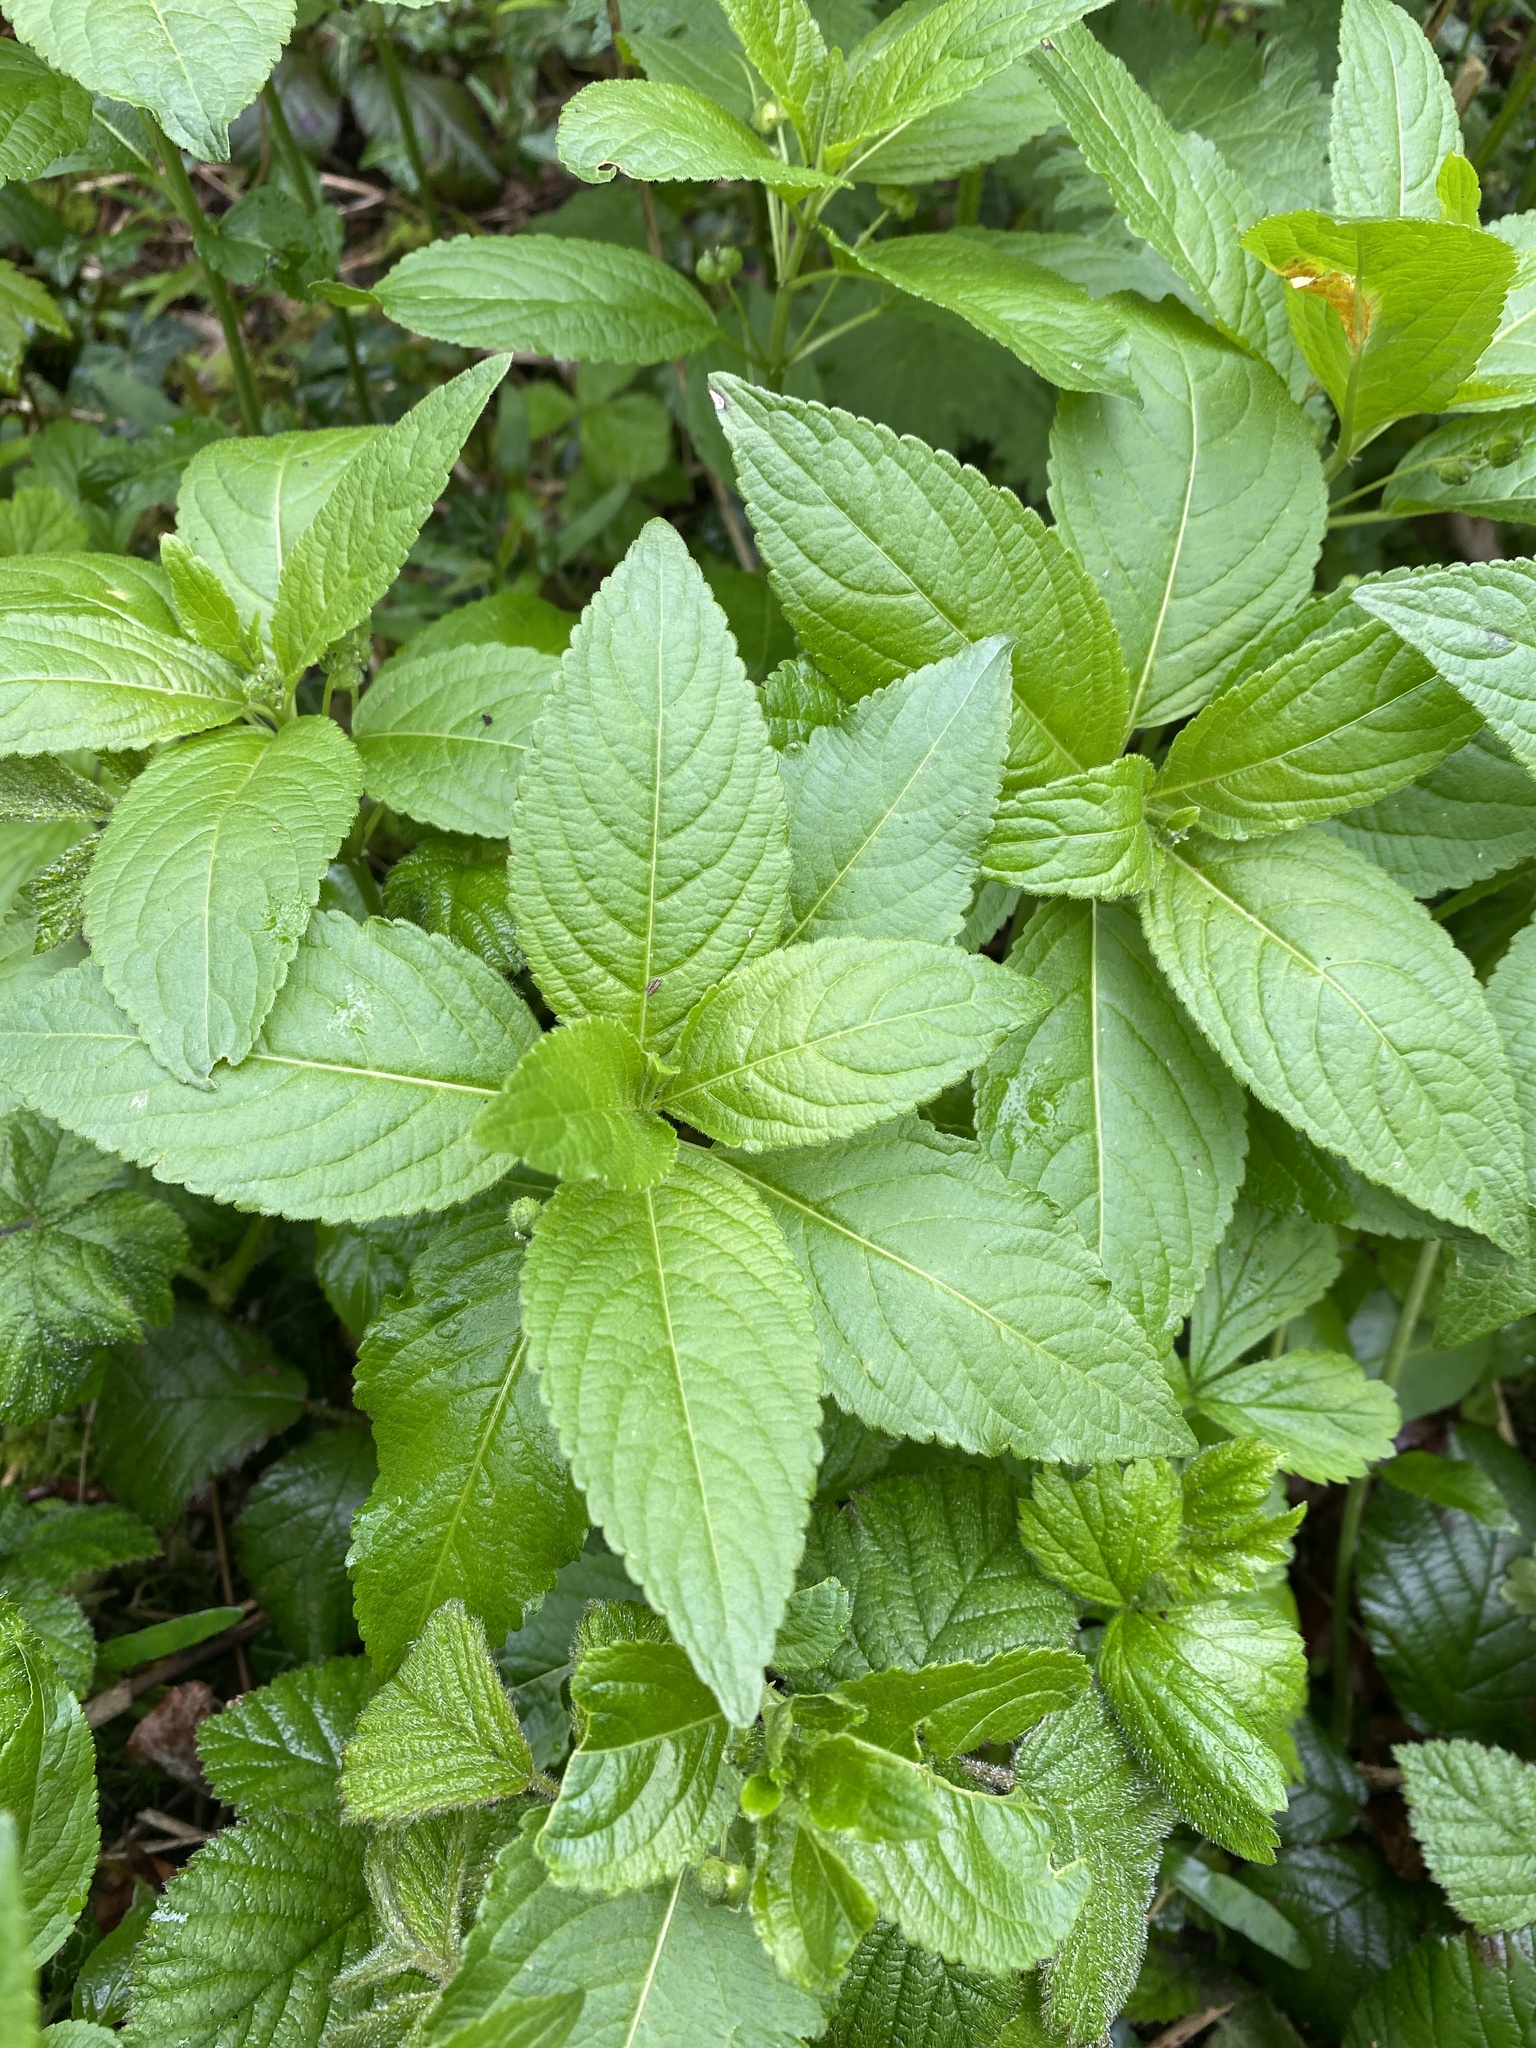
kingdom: Plantae
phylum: Tracheophyta
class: Magnoliopsida
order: Malpighiales
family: Euphorbiaceae
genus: Mercurialis
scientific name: Mercurialis perennis
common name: Dog mercury
